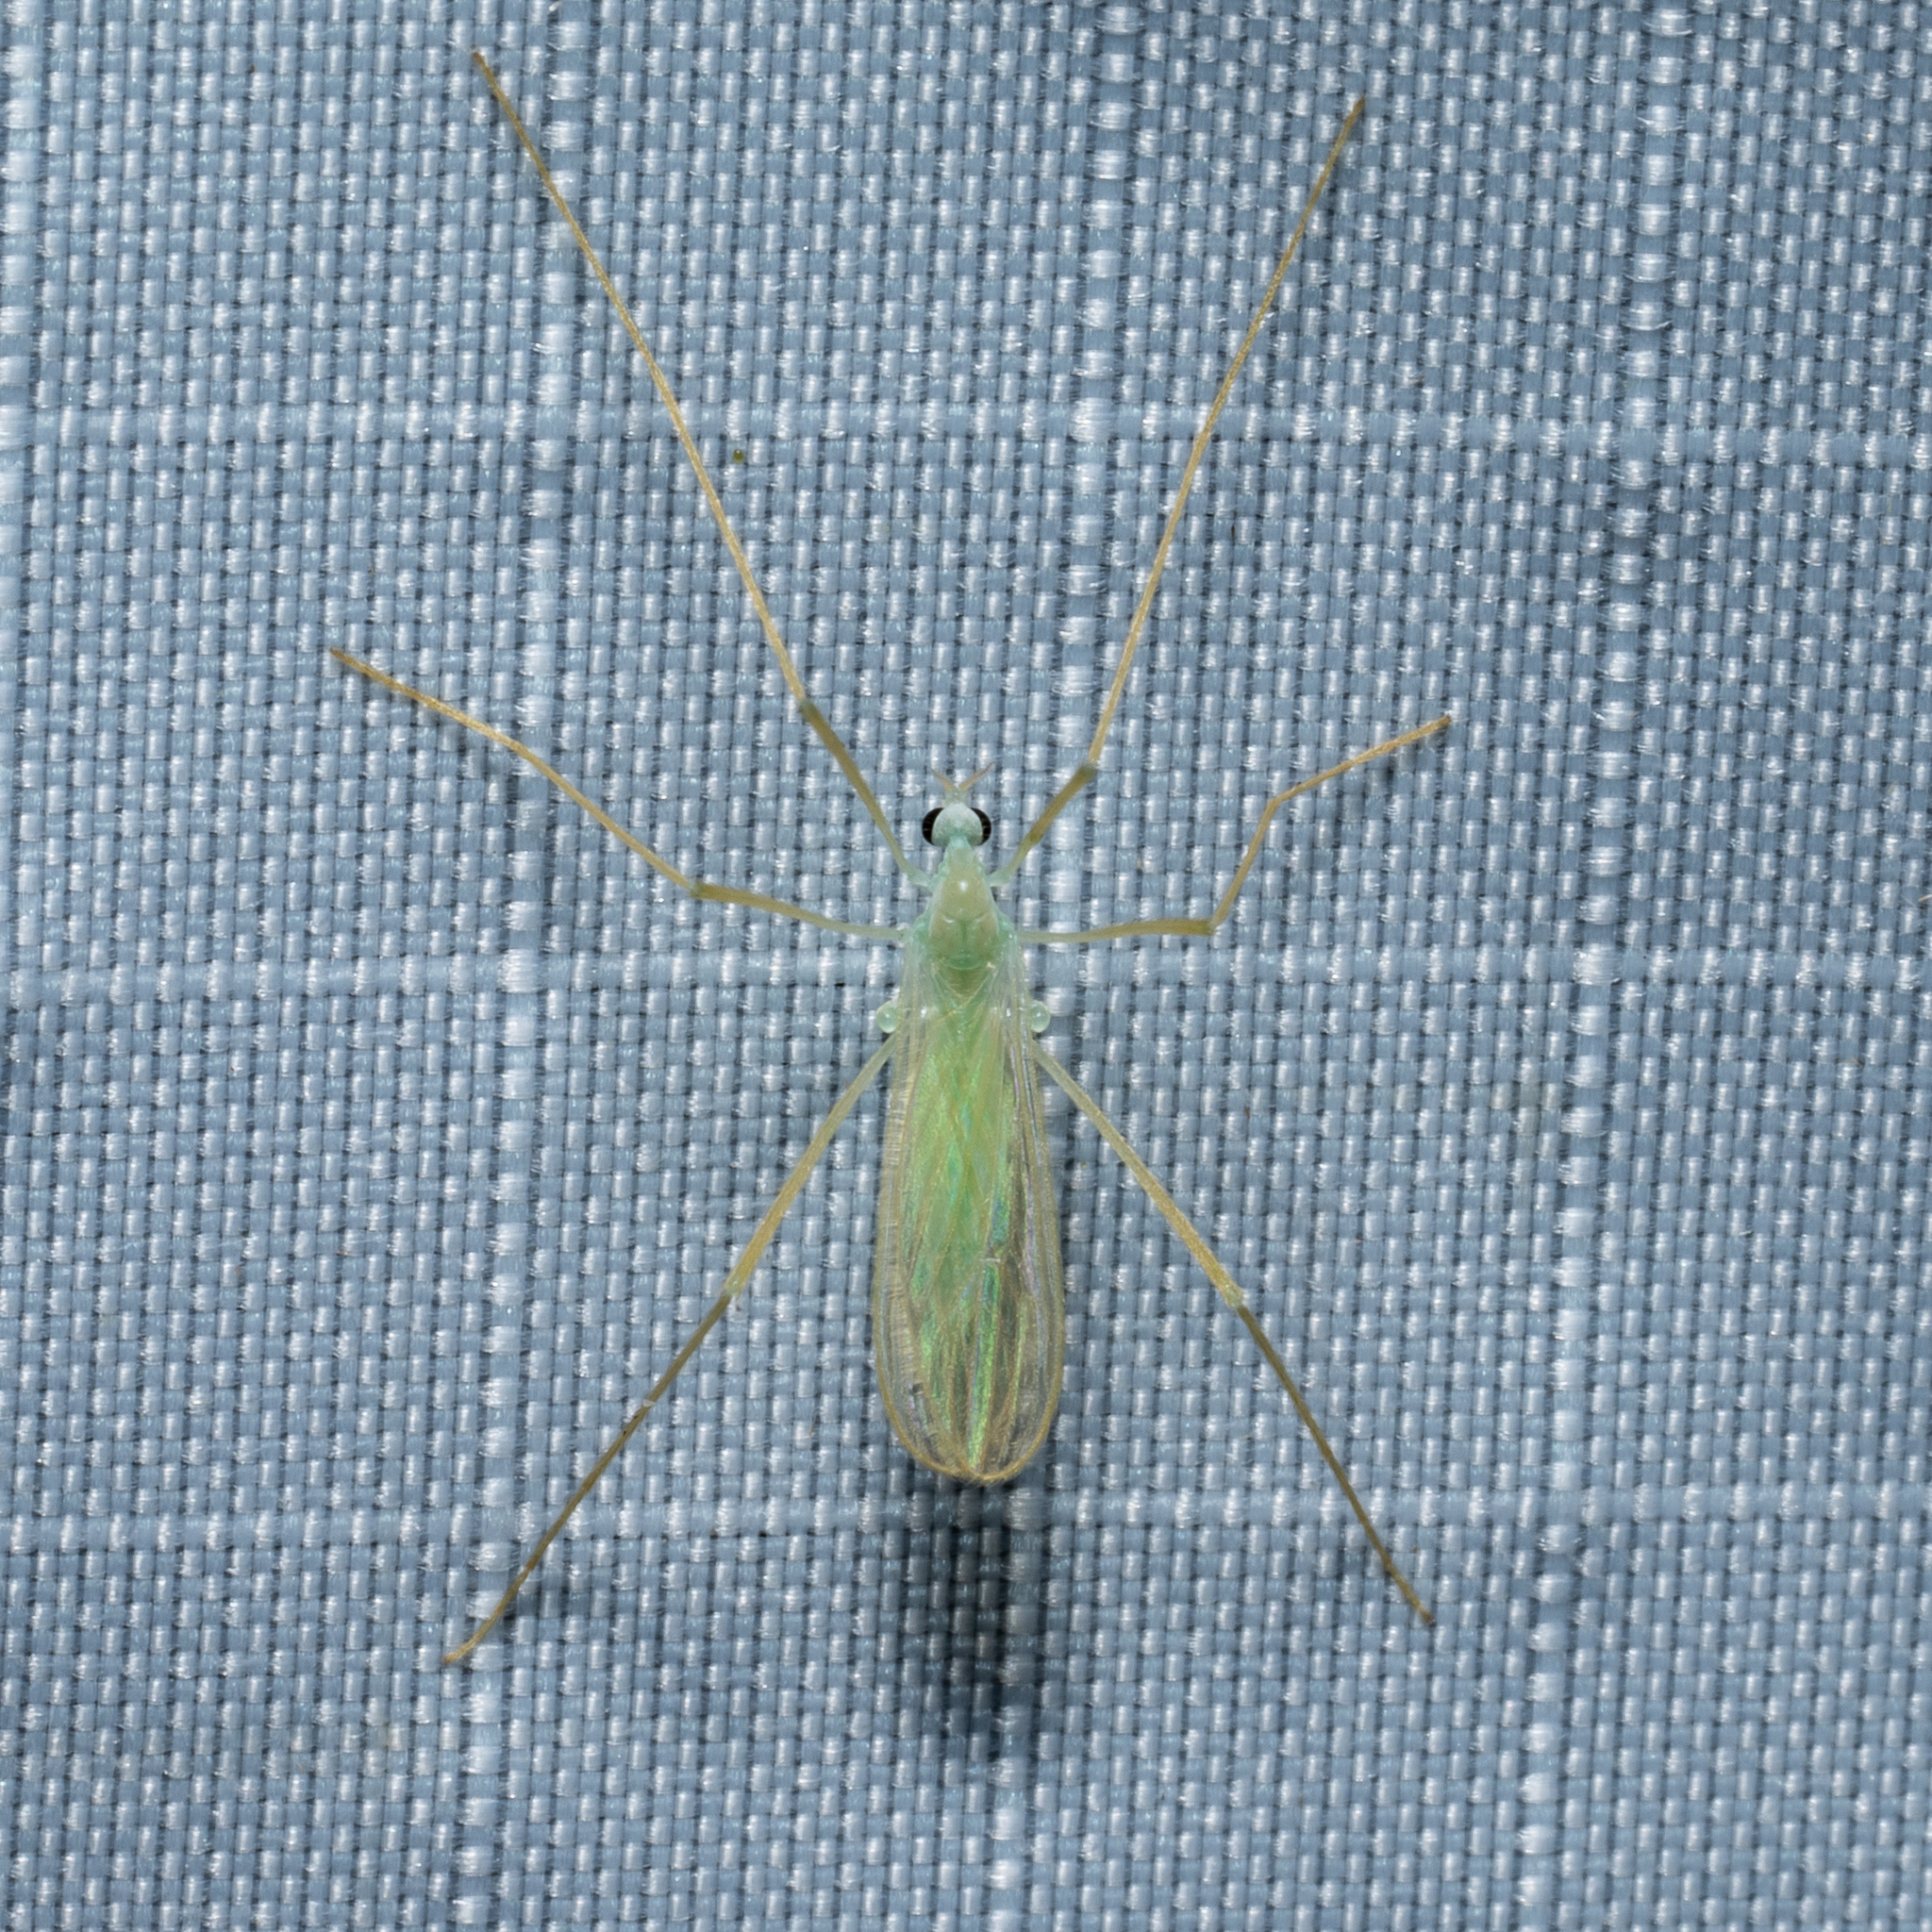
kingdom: Animalia
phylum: Arthropoda
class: Insecta
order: Diptera
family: Limoniidae
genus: Erioptera
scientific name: Erioptera
